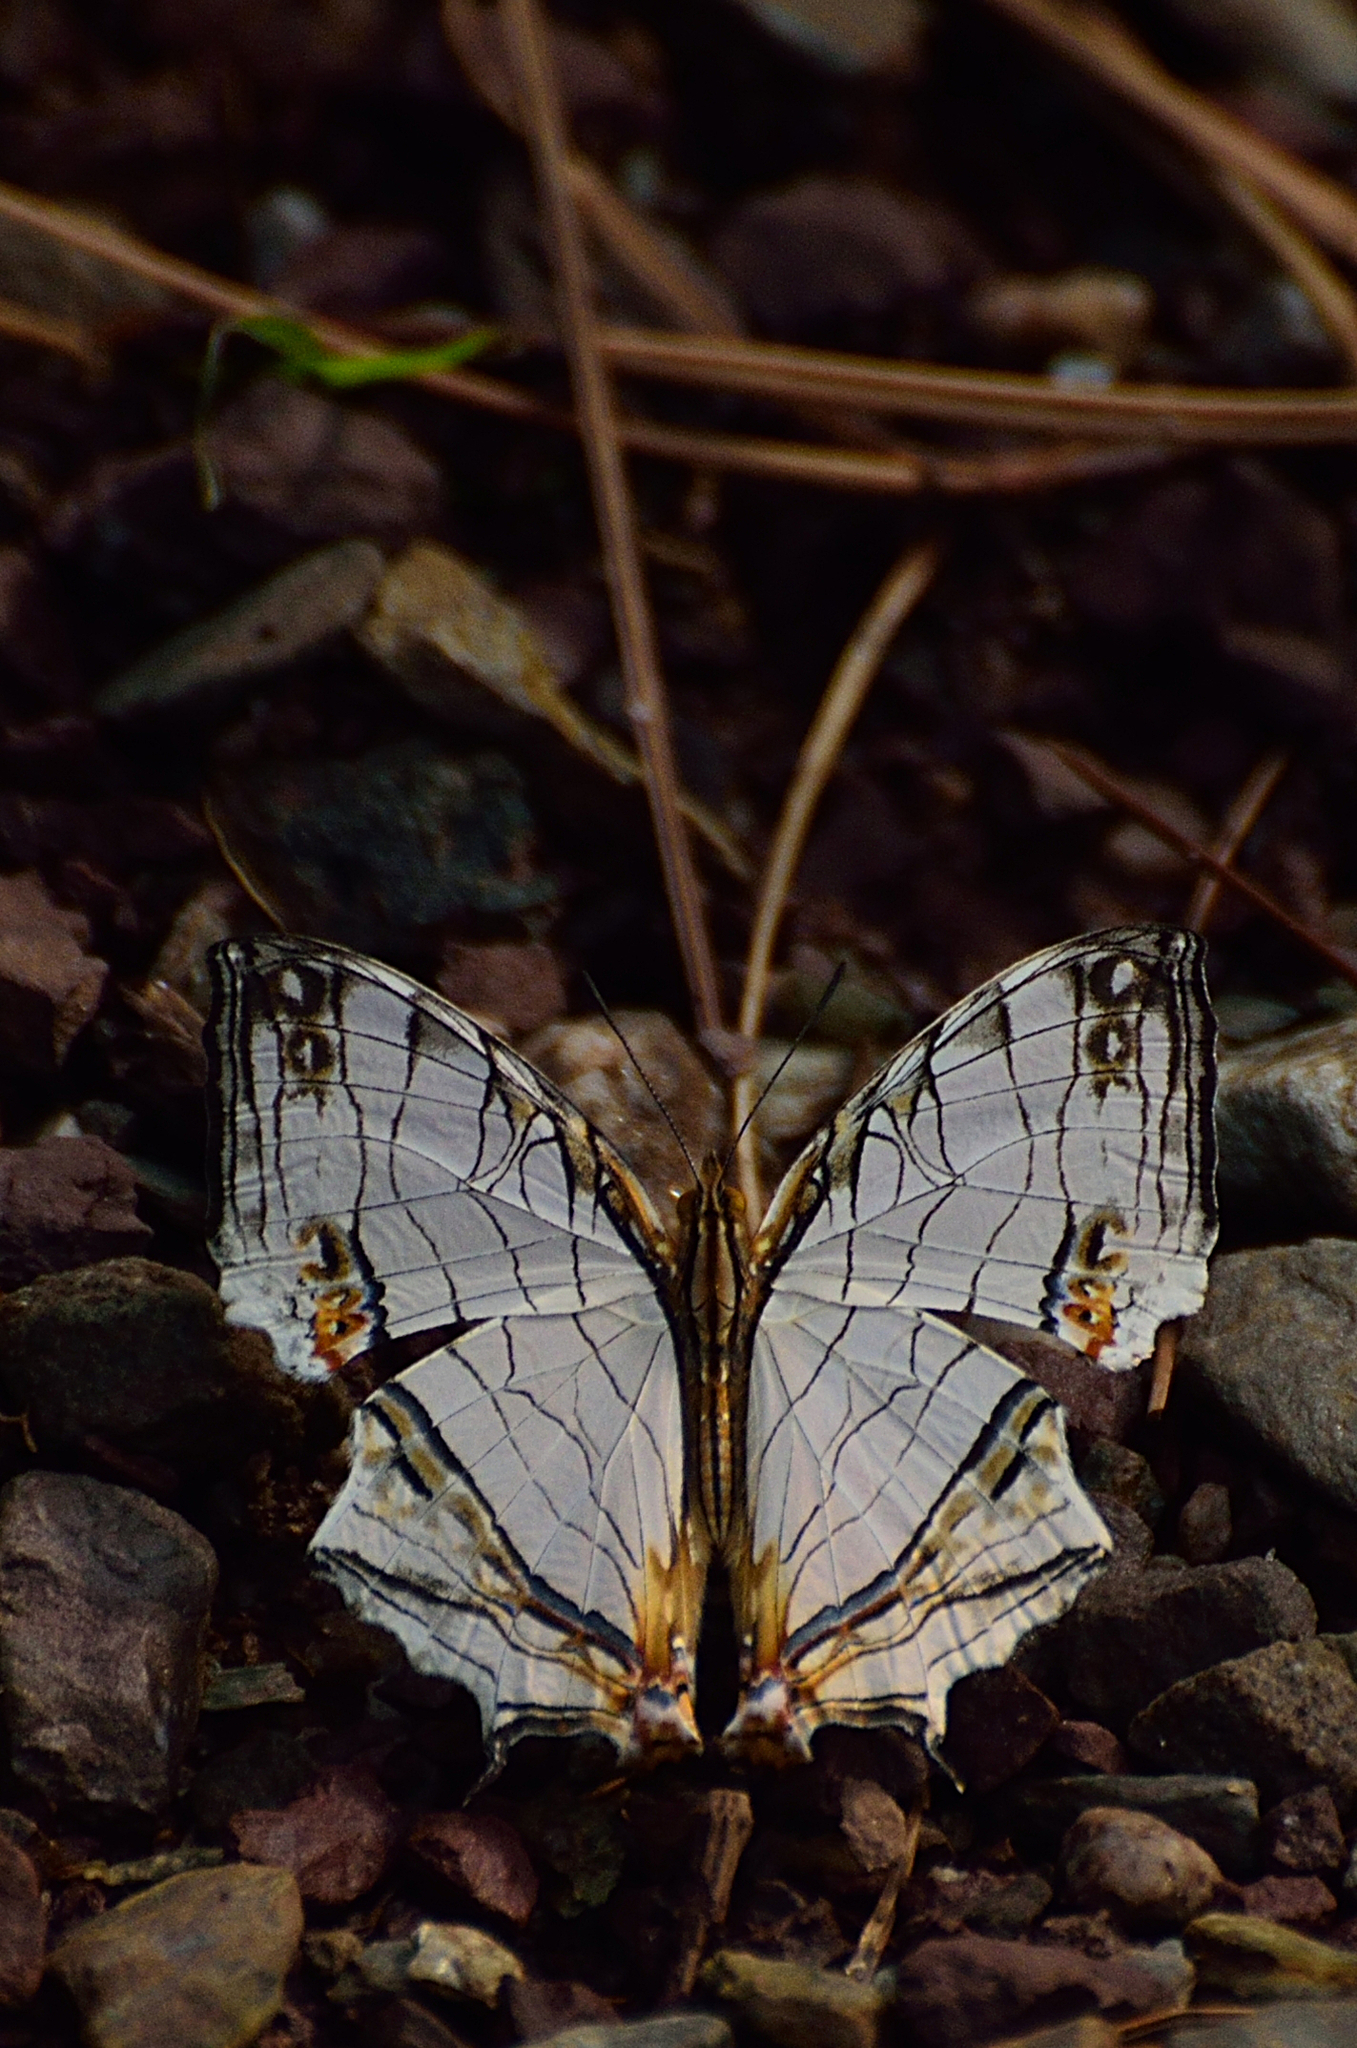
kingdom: Animalia
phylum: Arthropoda
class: Insecta
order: Lepidoptera
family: Nymphalidae
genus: Cyrestis
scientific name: Cyrestis thyodamas
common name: Common mapwing
